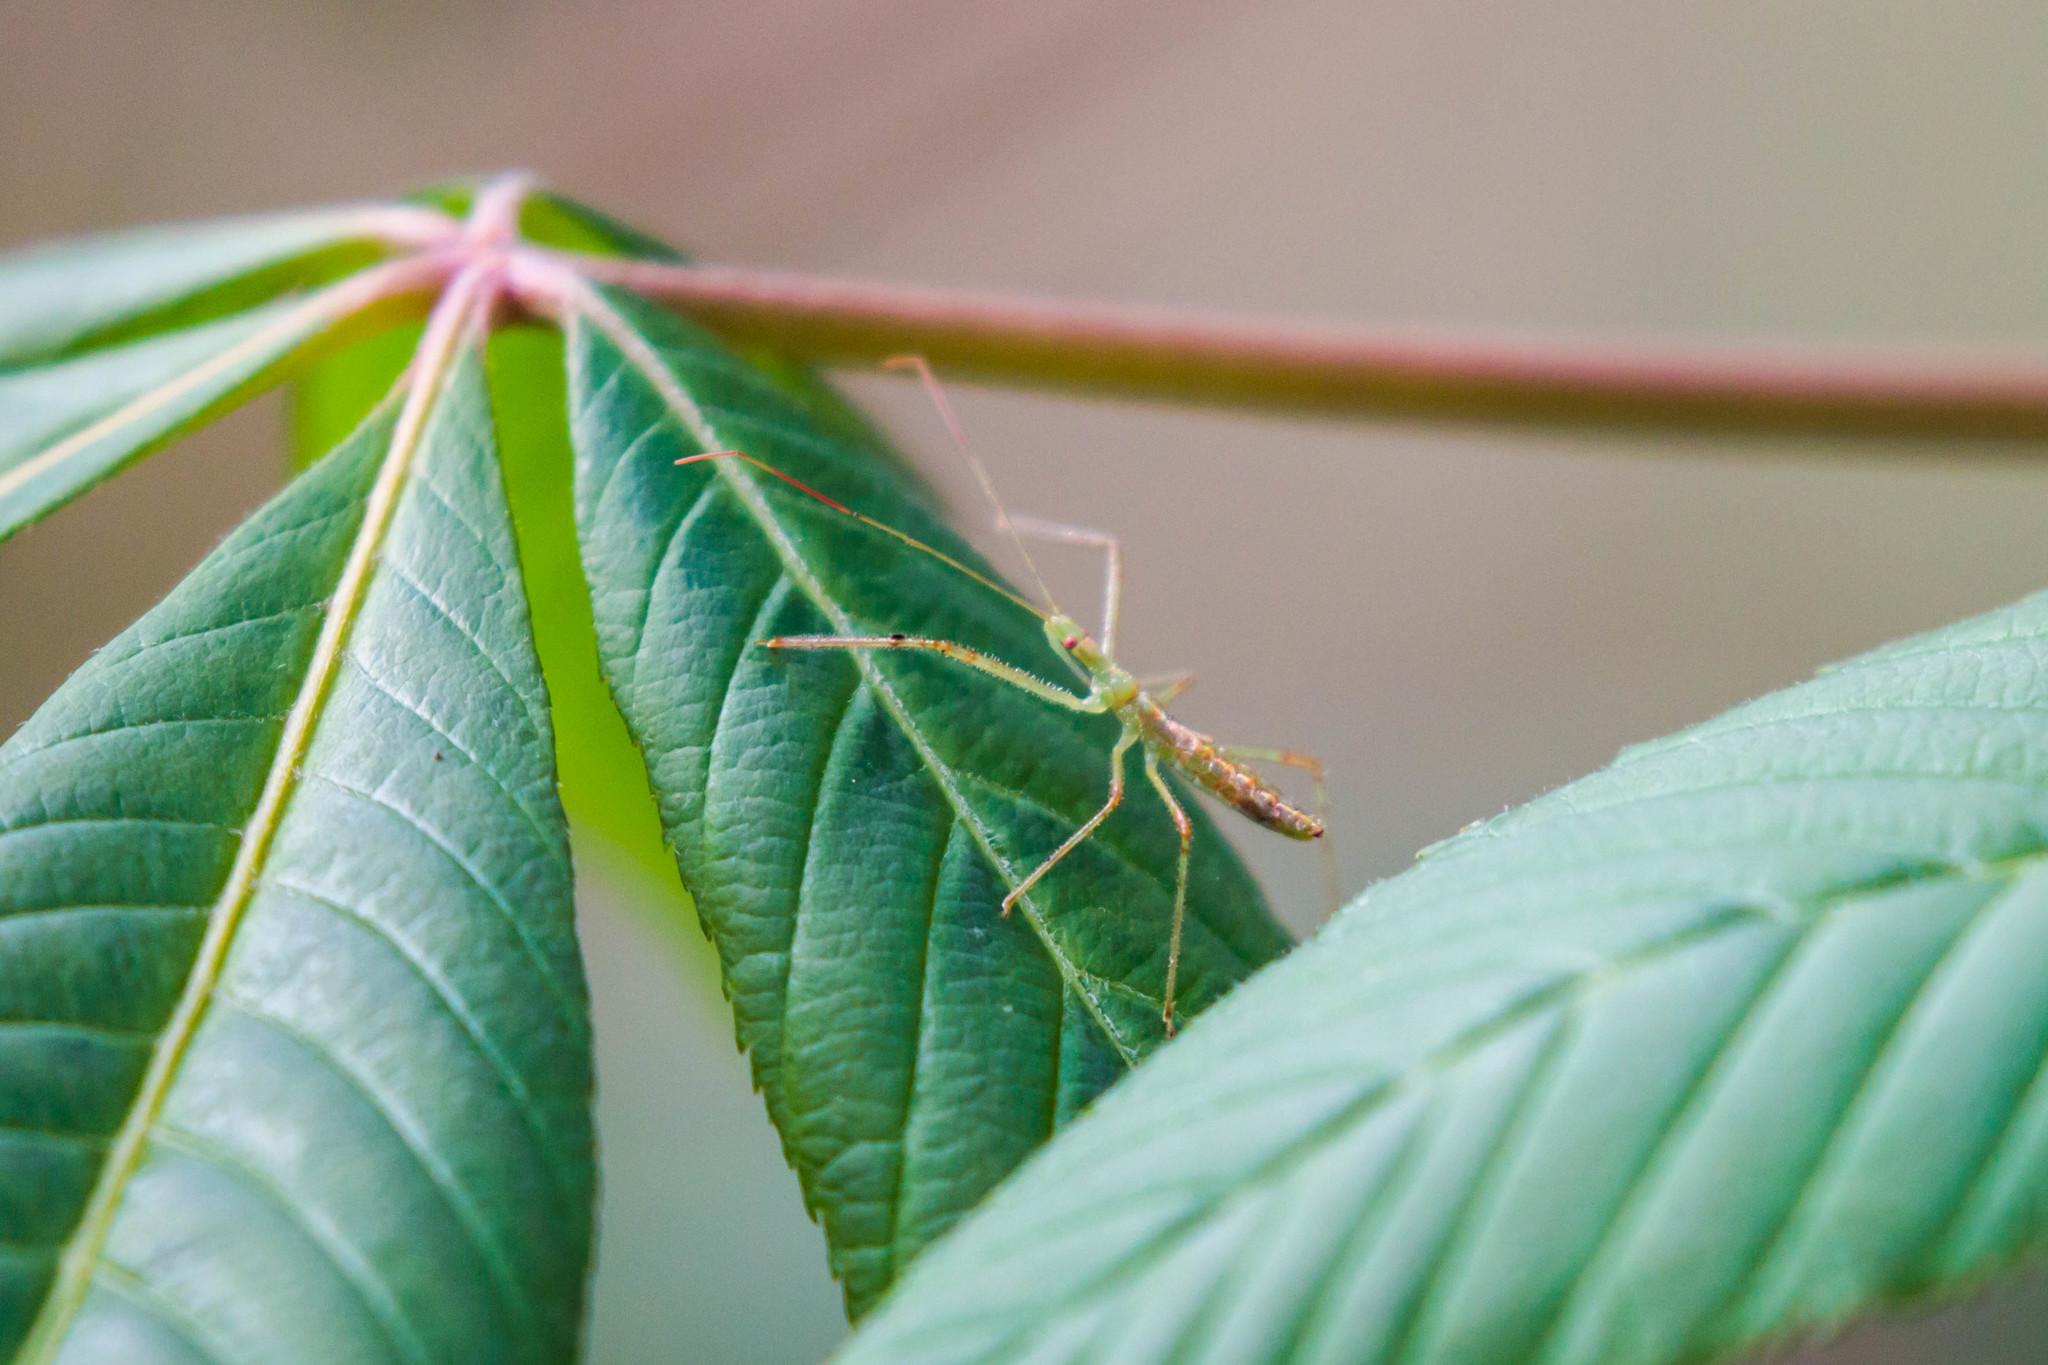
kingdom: Animalia
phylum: Arthropoda
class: Insecta
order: Hemiptera
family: Reduviidae
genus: Zelus
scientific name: Zelus luridus
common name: Pale green assassin bug
